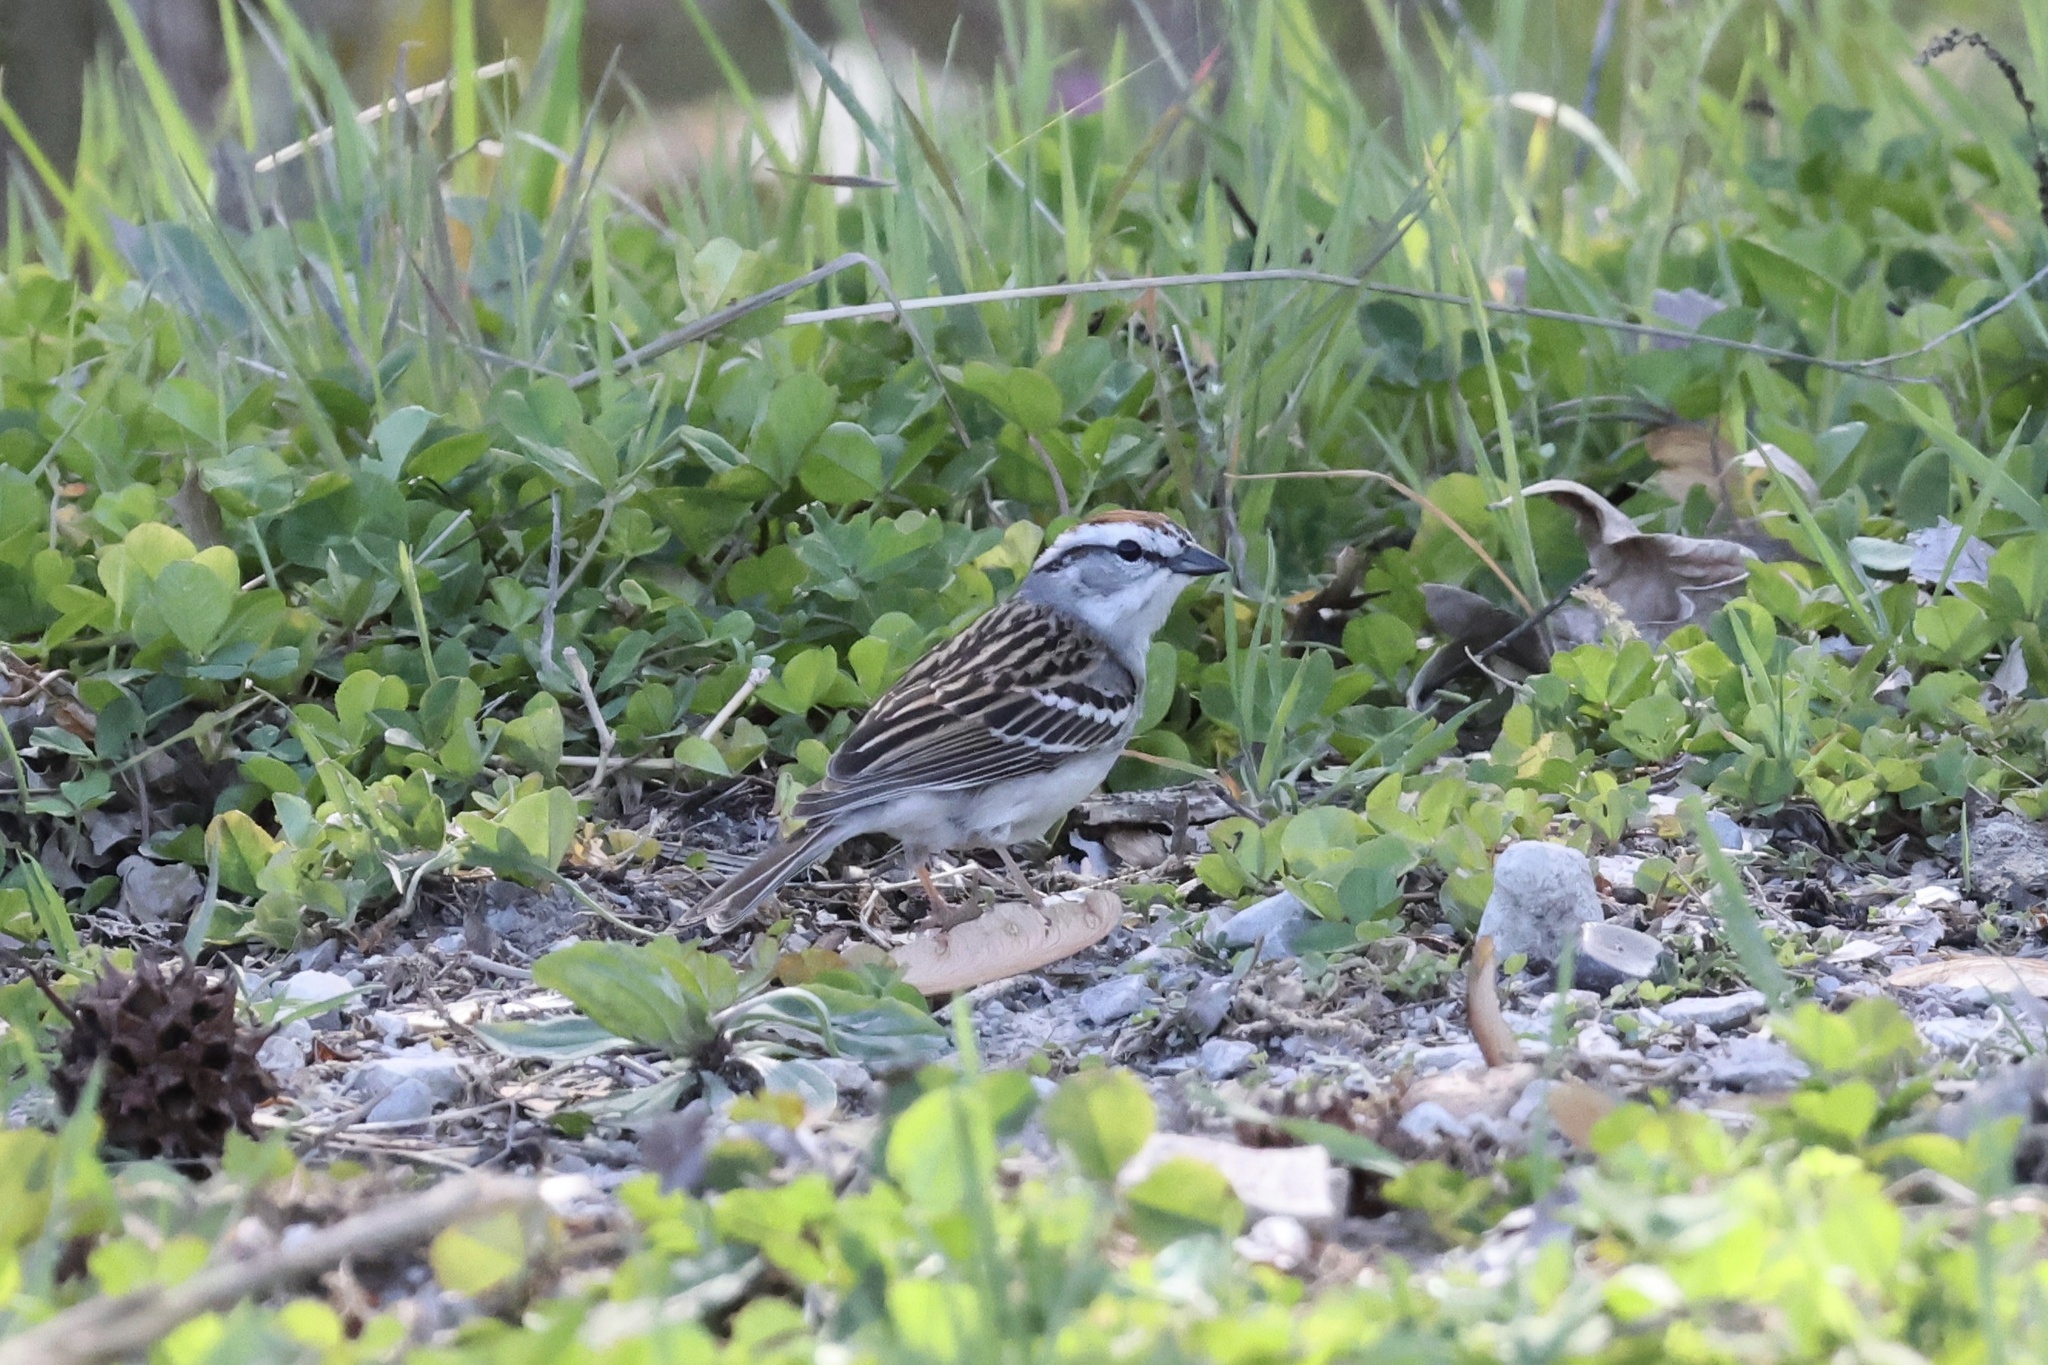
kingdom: Animalia
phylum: Chordata
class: Aves
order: Passeriformes
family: Passerellidae
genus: Spizella
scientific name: Spizella passerina
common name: Chipping sparrow
